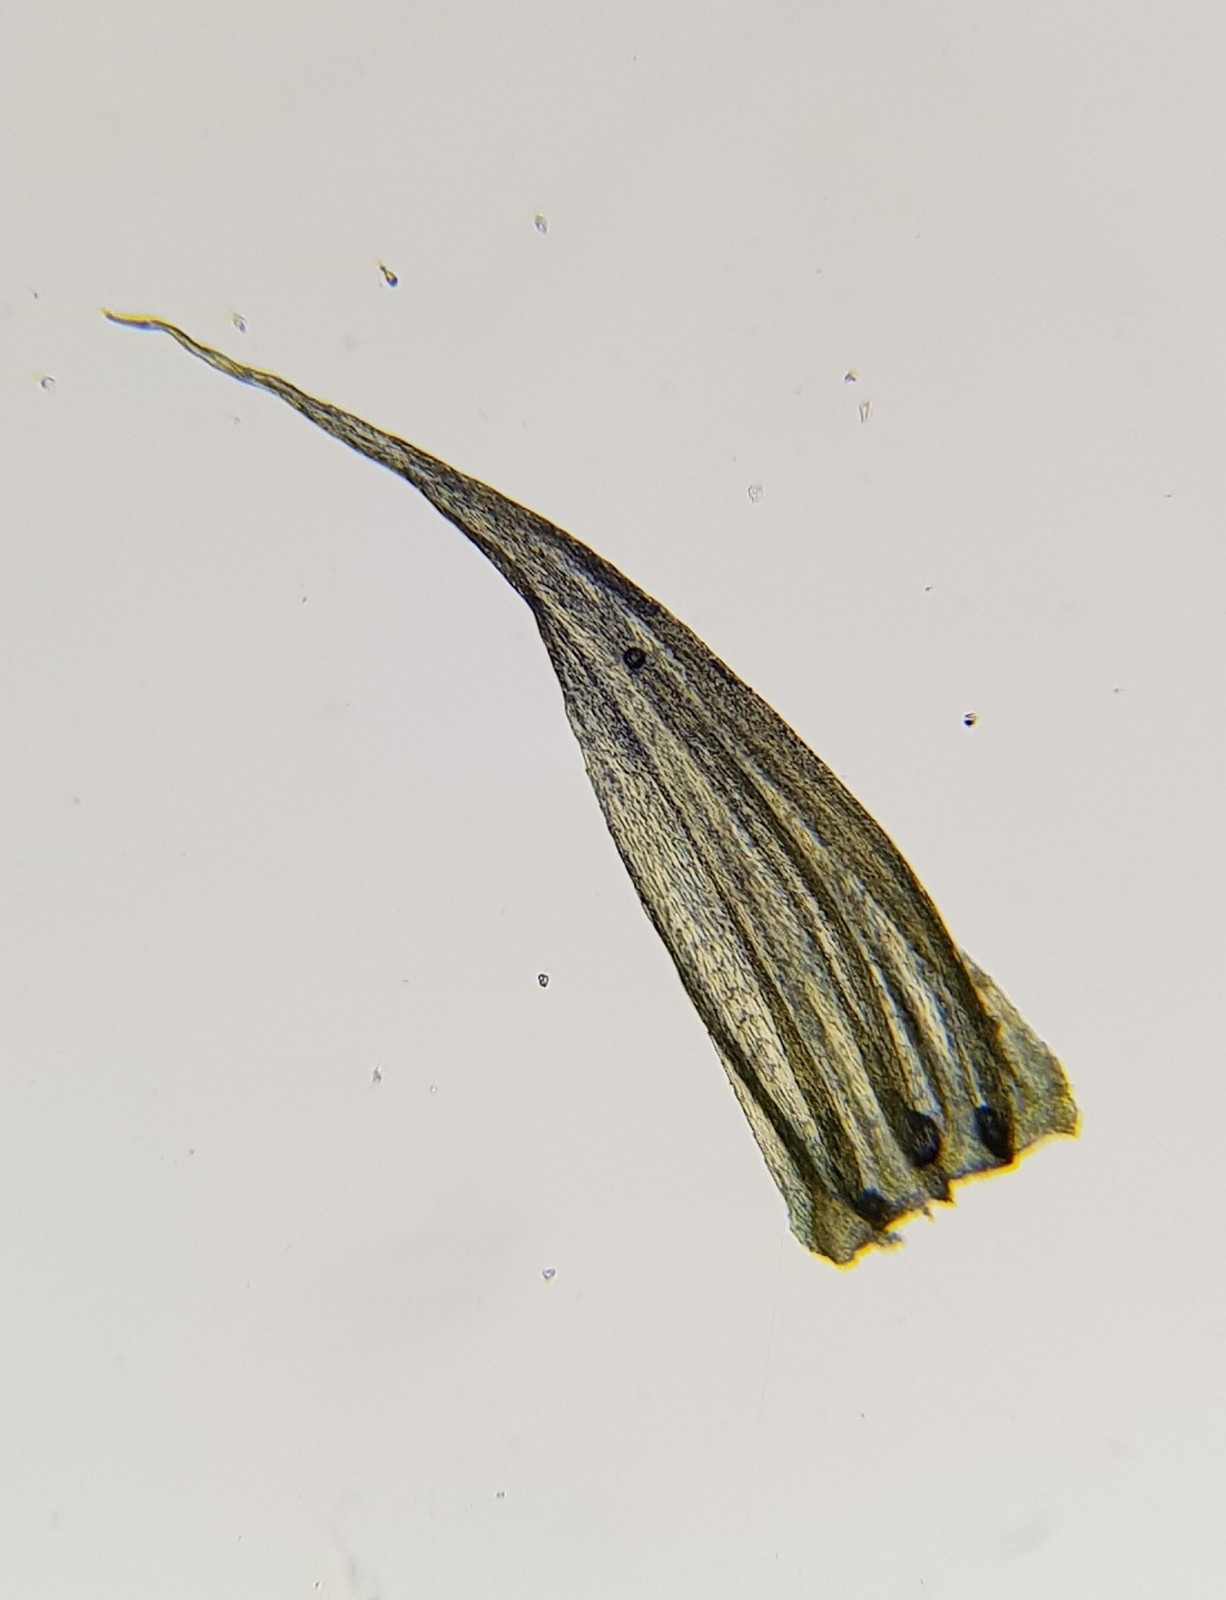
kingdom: Plantae
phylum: Bryophyta
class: Bryopsida
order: Hypnales
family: Brachytheciaceae
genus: Homalothecium
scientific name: Homalothecium sericeum
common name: Silky wall feather-moss
